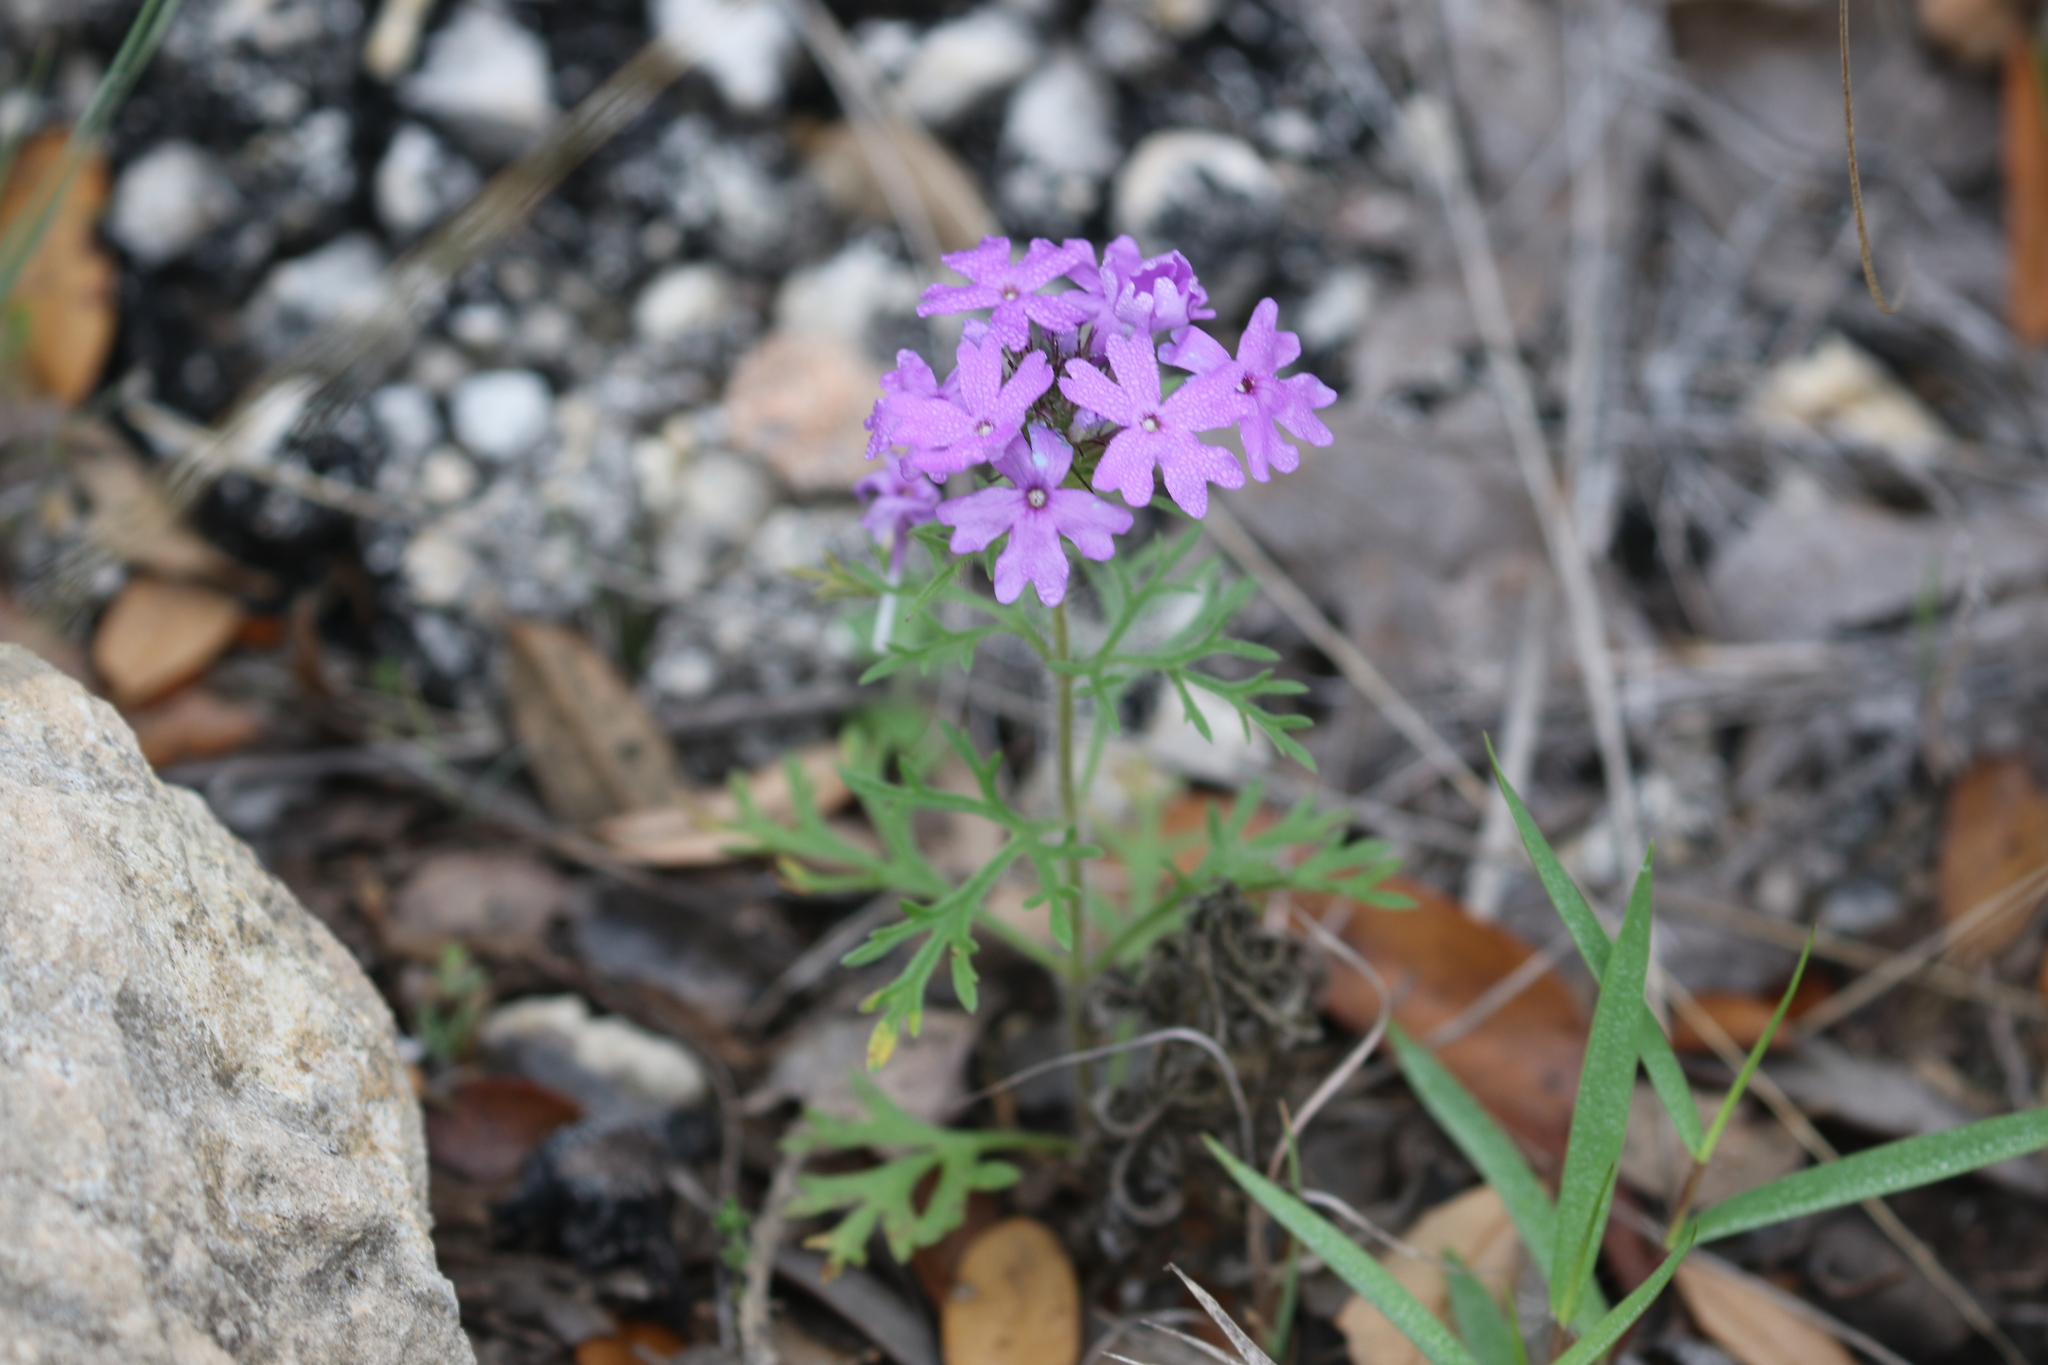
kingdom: Plantae
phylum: Tracheophyta
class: Magnoliopsida
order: Lamiales
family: Verbenaceae
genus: Verbena
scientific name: Verbena bipinnatifida
